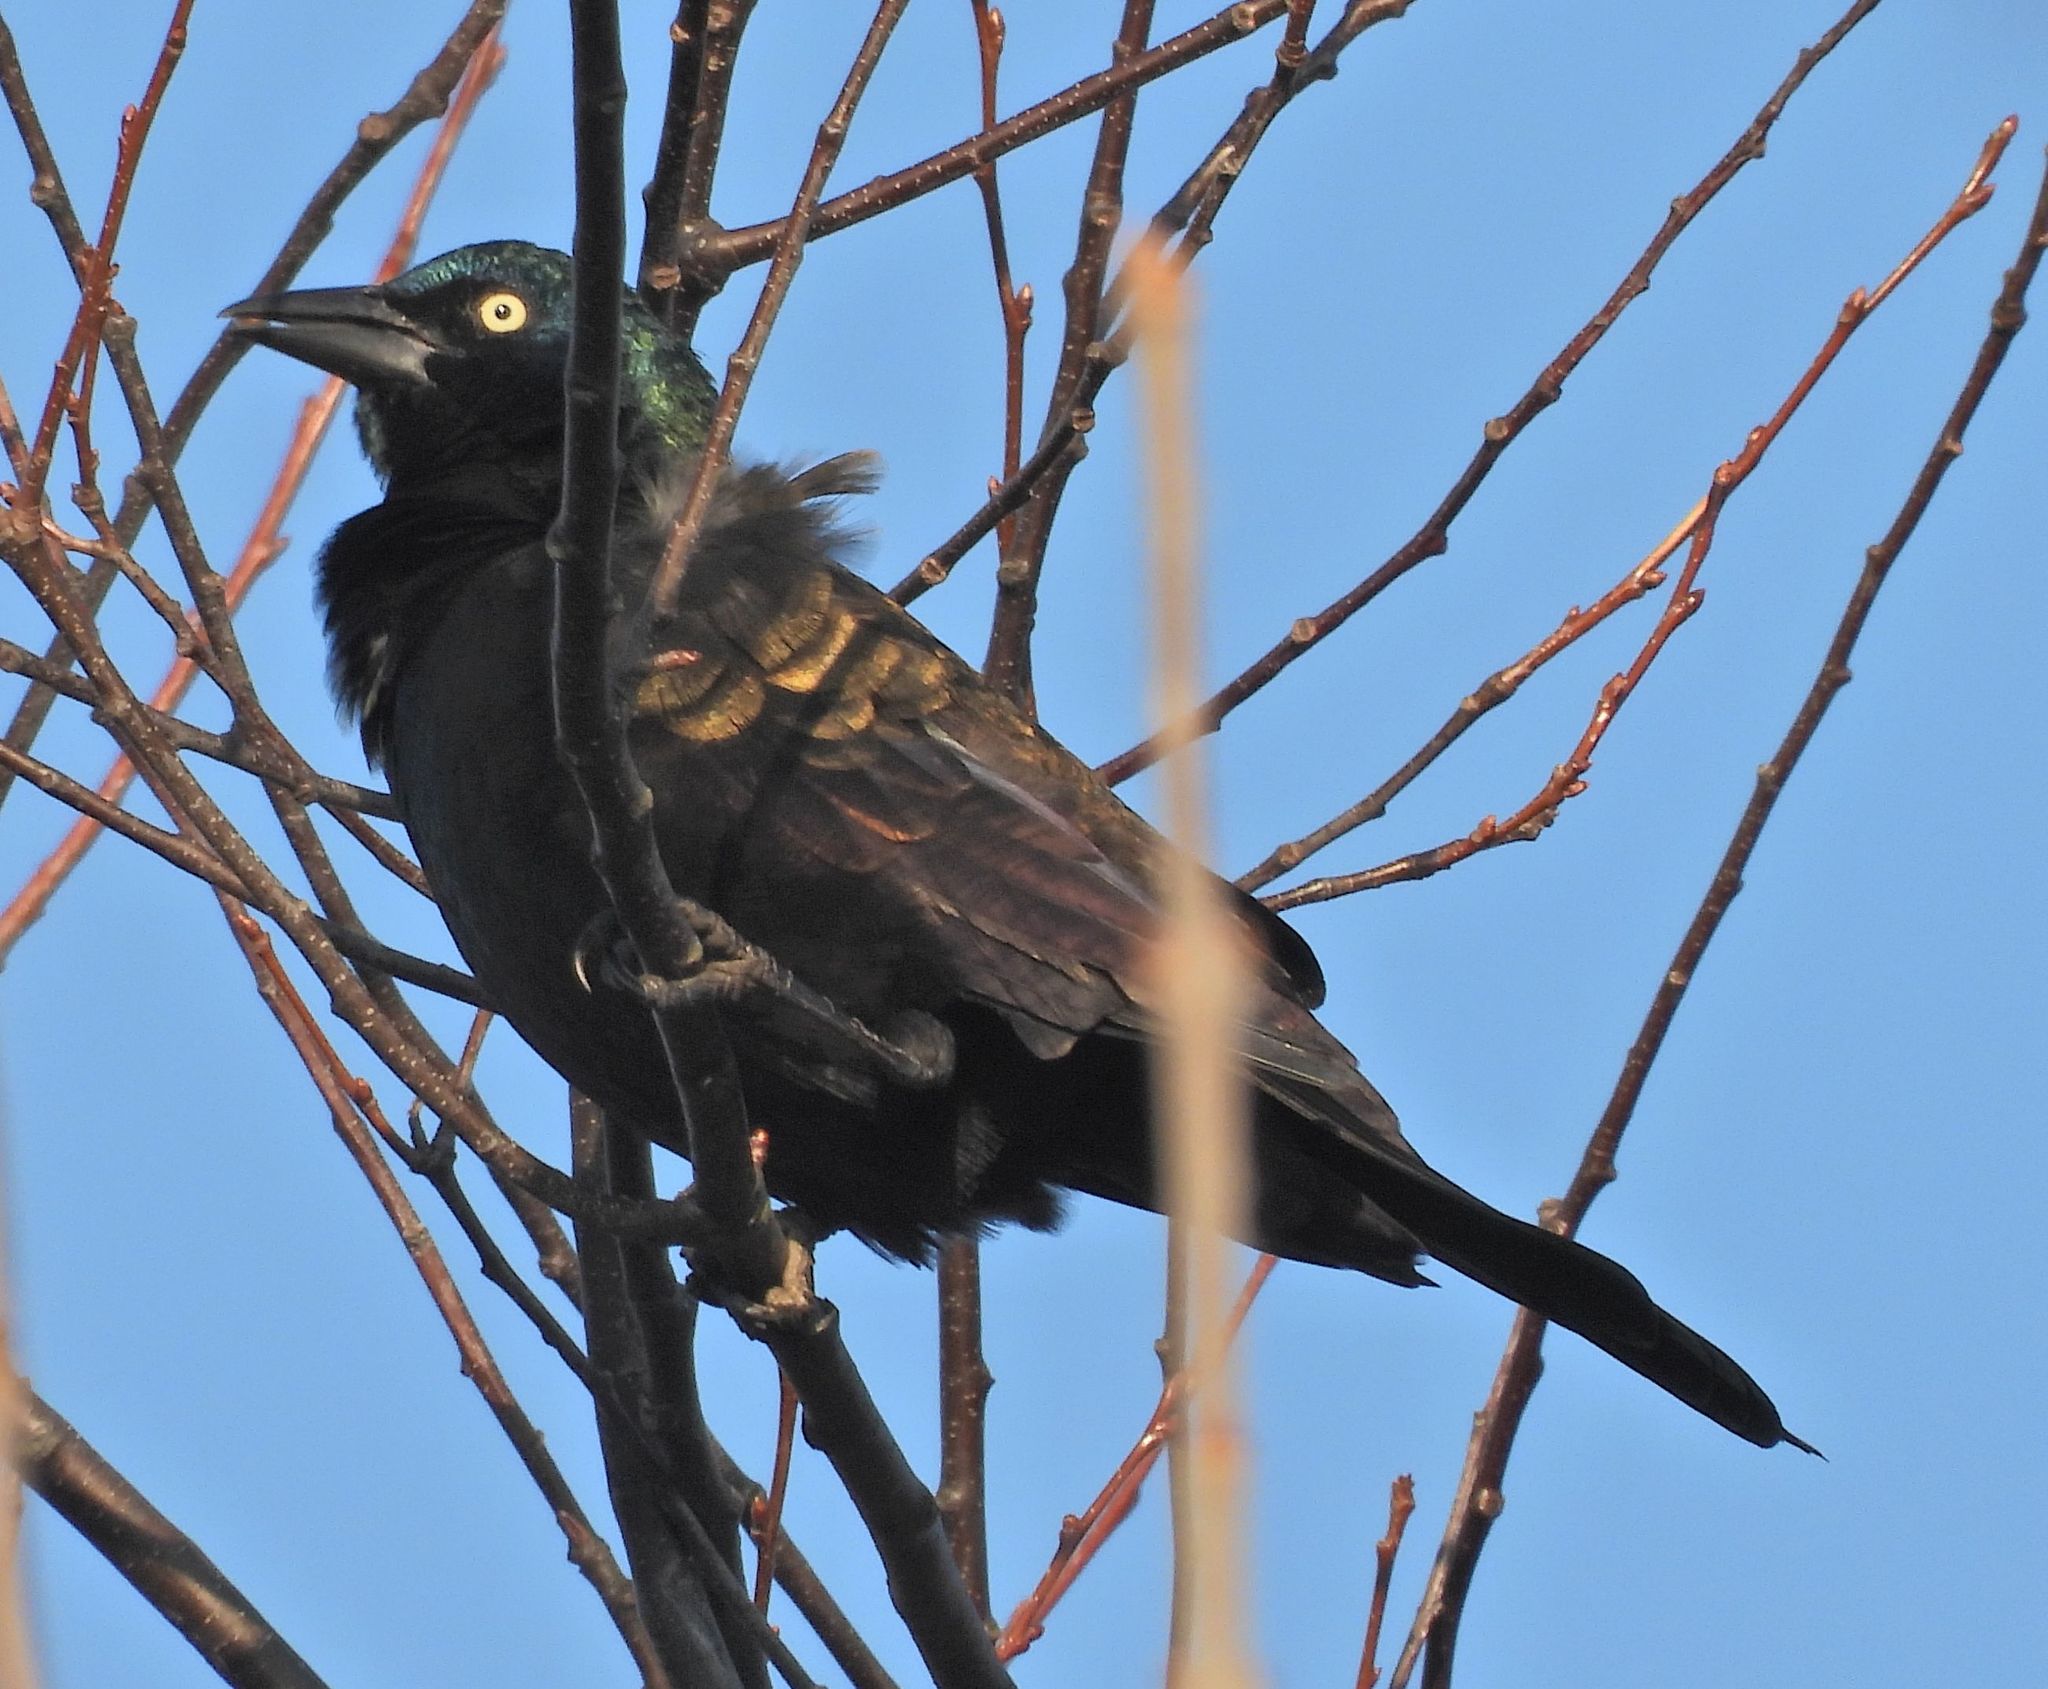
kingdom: Animalia
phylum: Chordata
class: Aves
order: Passeriformes
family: Icteridae
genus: Quiscalus
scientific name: Quiscalus quiscula
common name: Common grackle
